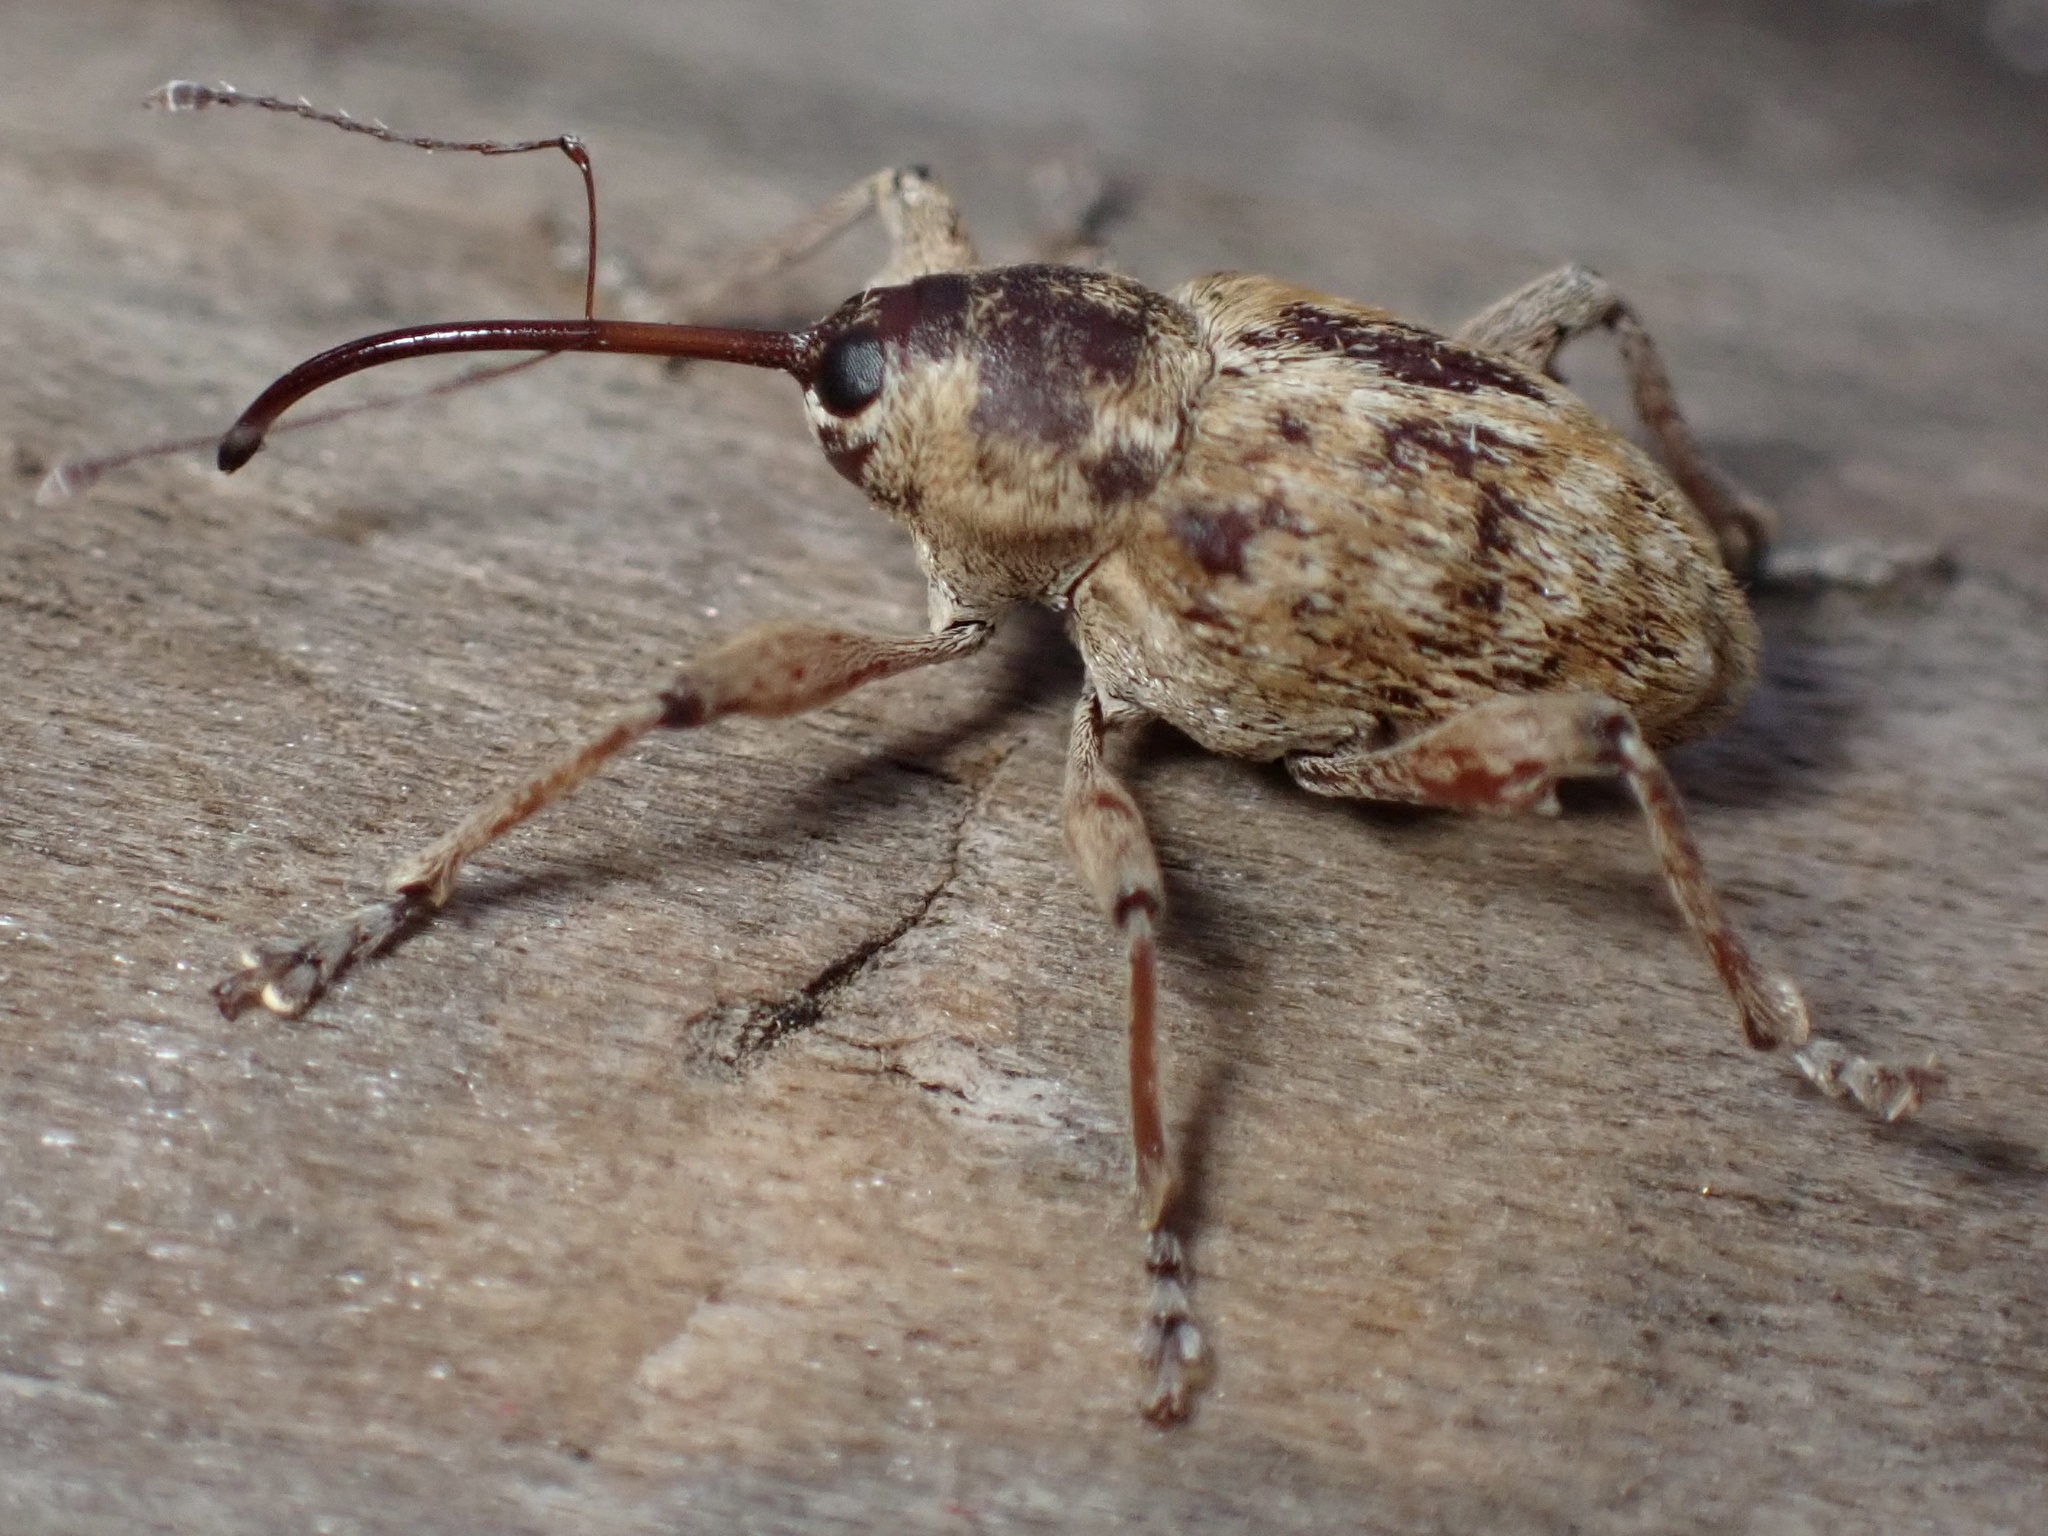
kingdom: Animalia
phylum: Arthropoda
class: Insecta
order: Coleoptera
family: Curculionidae
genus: Curculio
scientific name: Curculio occidentis
